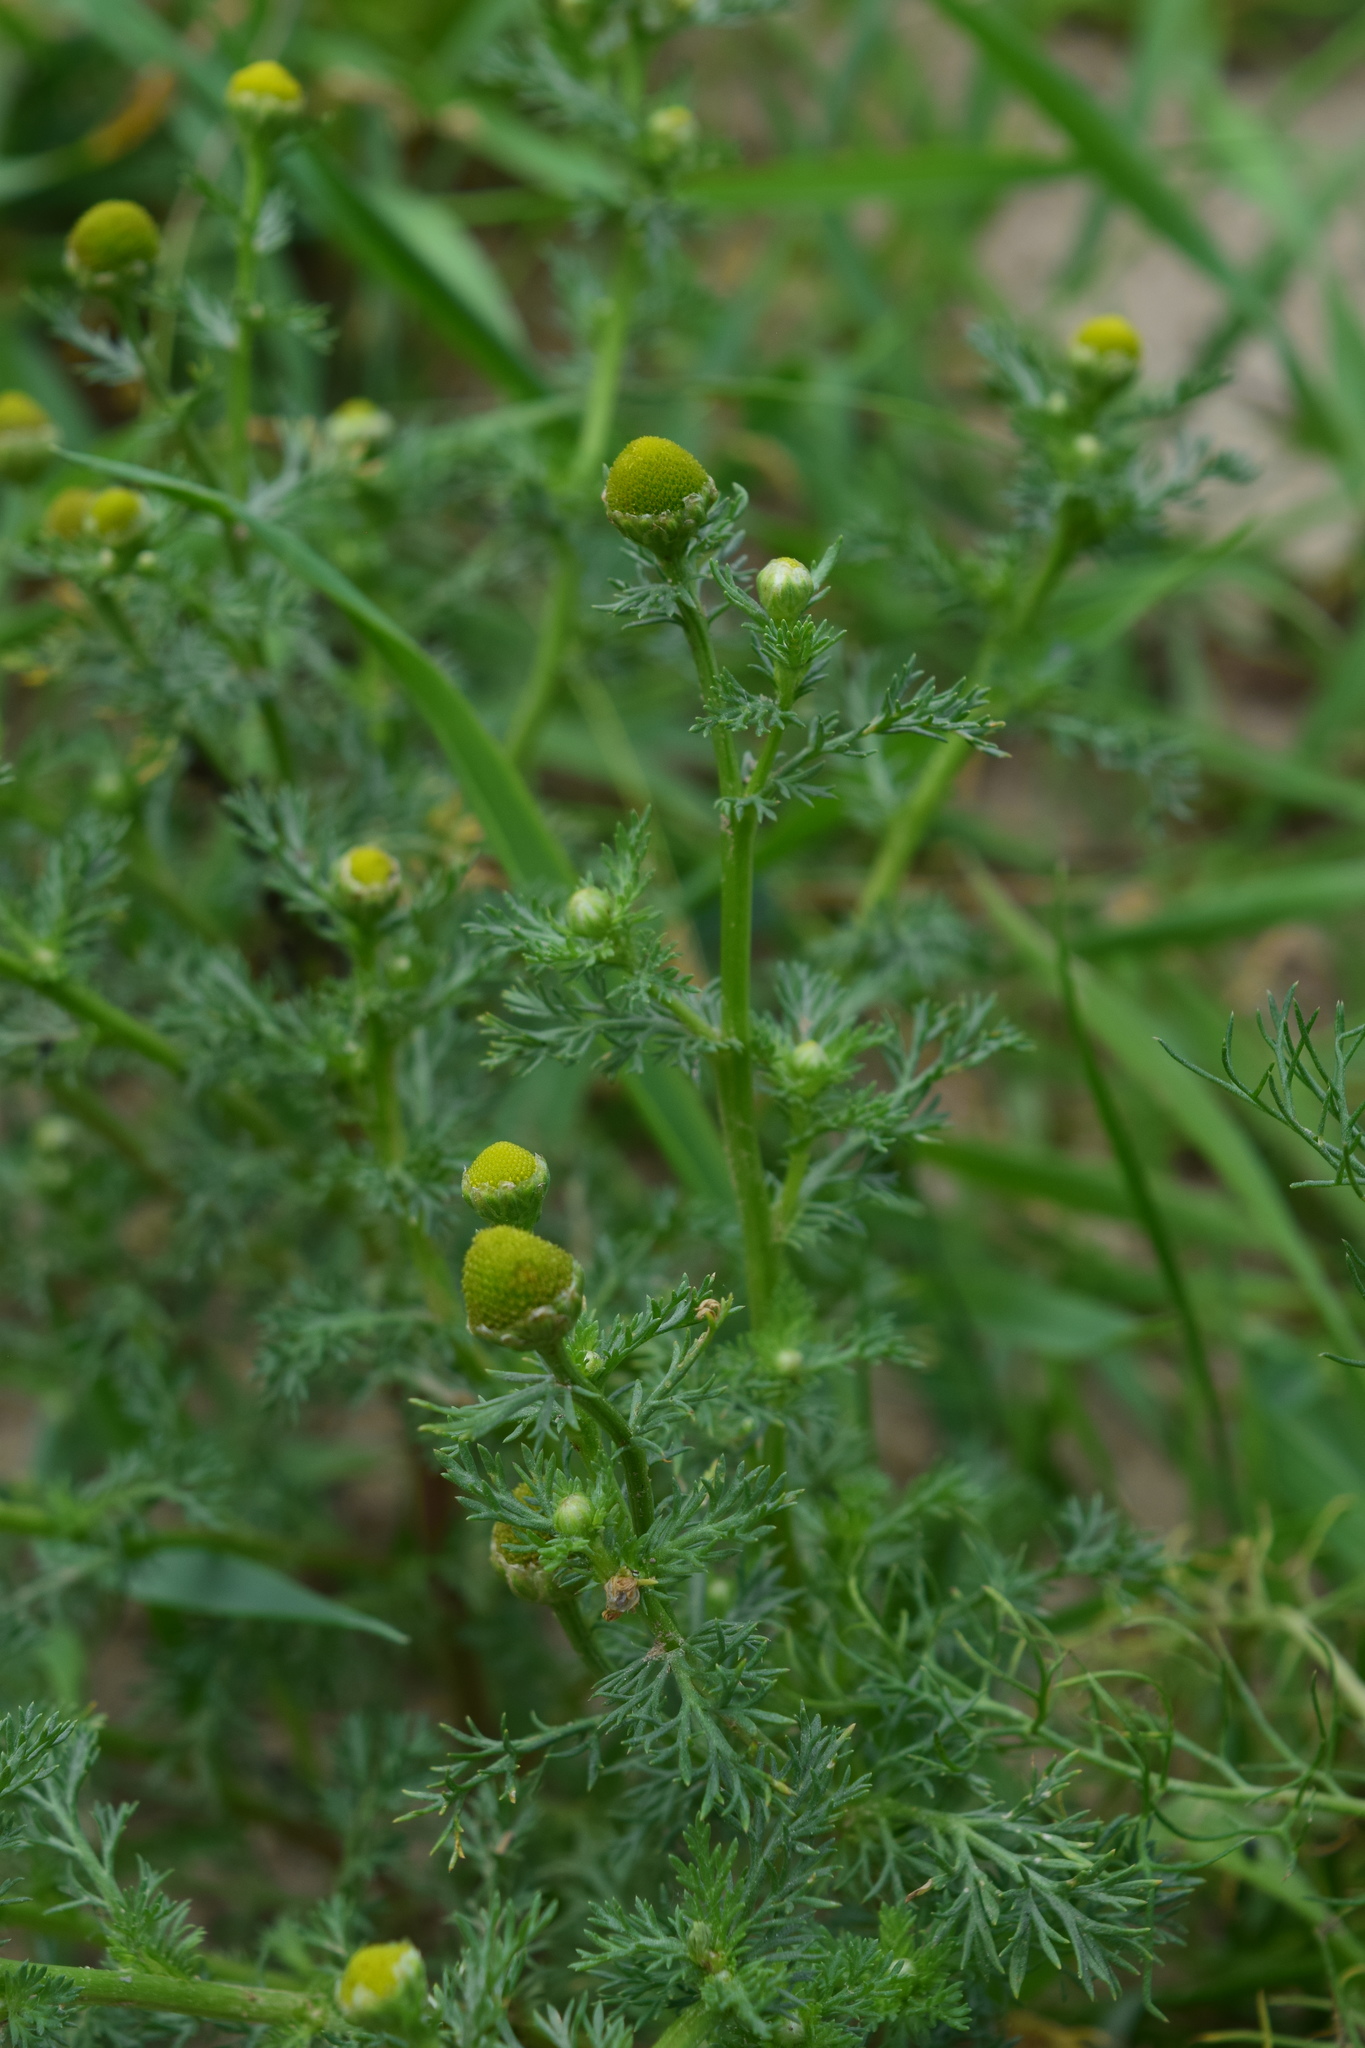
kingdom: Plantae
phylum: Tracheophyta
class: Magnoliopsida
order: Asterales
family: Asteraceae
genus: Matricaria
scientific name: Matricaria discoidea
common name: Disc mayweed
